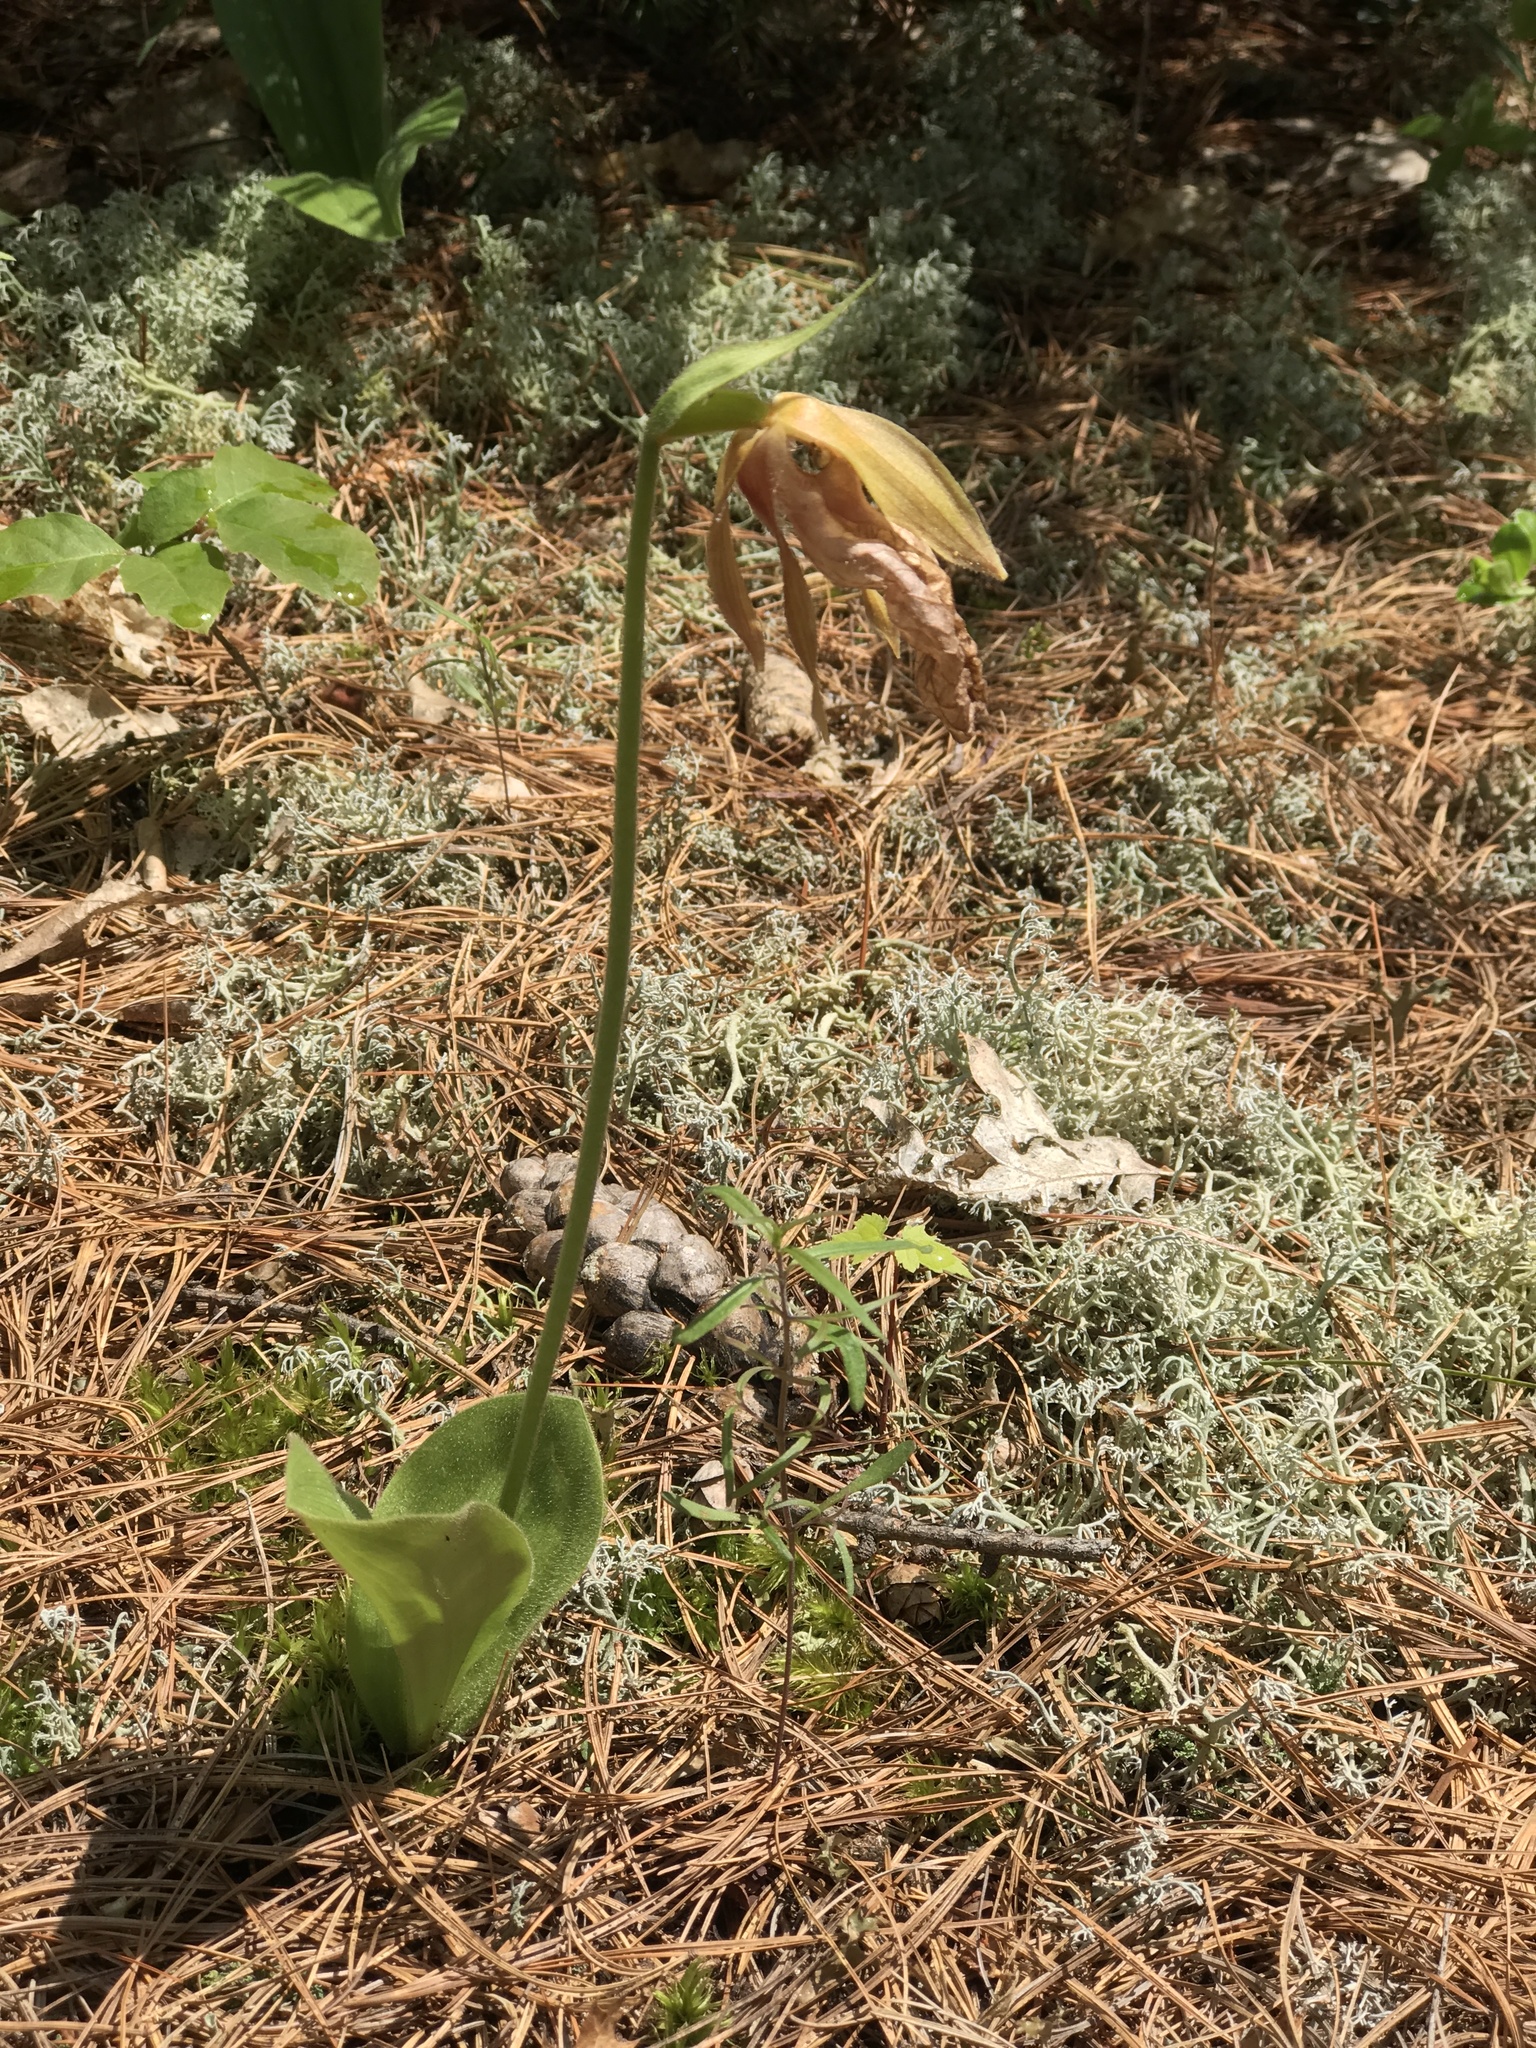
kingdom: Plantae
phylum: Tracheophyta
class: Liliopsida
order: Asparagales
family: Orchidaceae
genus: Cypripedium
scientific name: Cypripedium acaule
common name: Pink lady's-slipper
